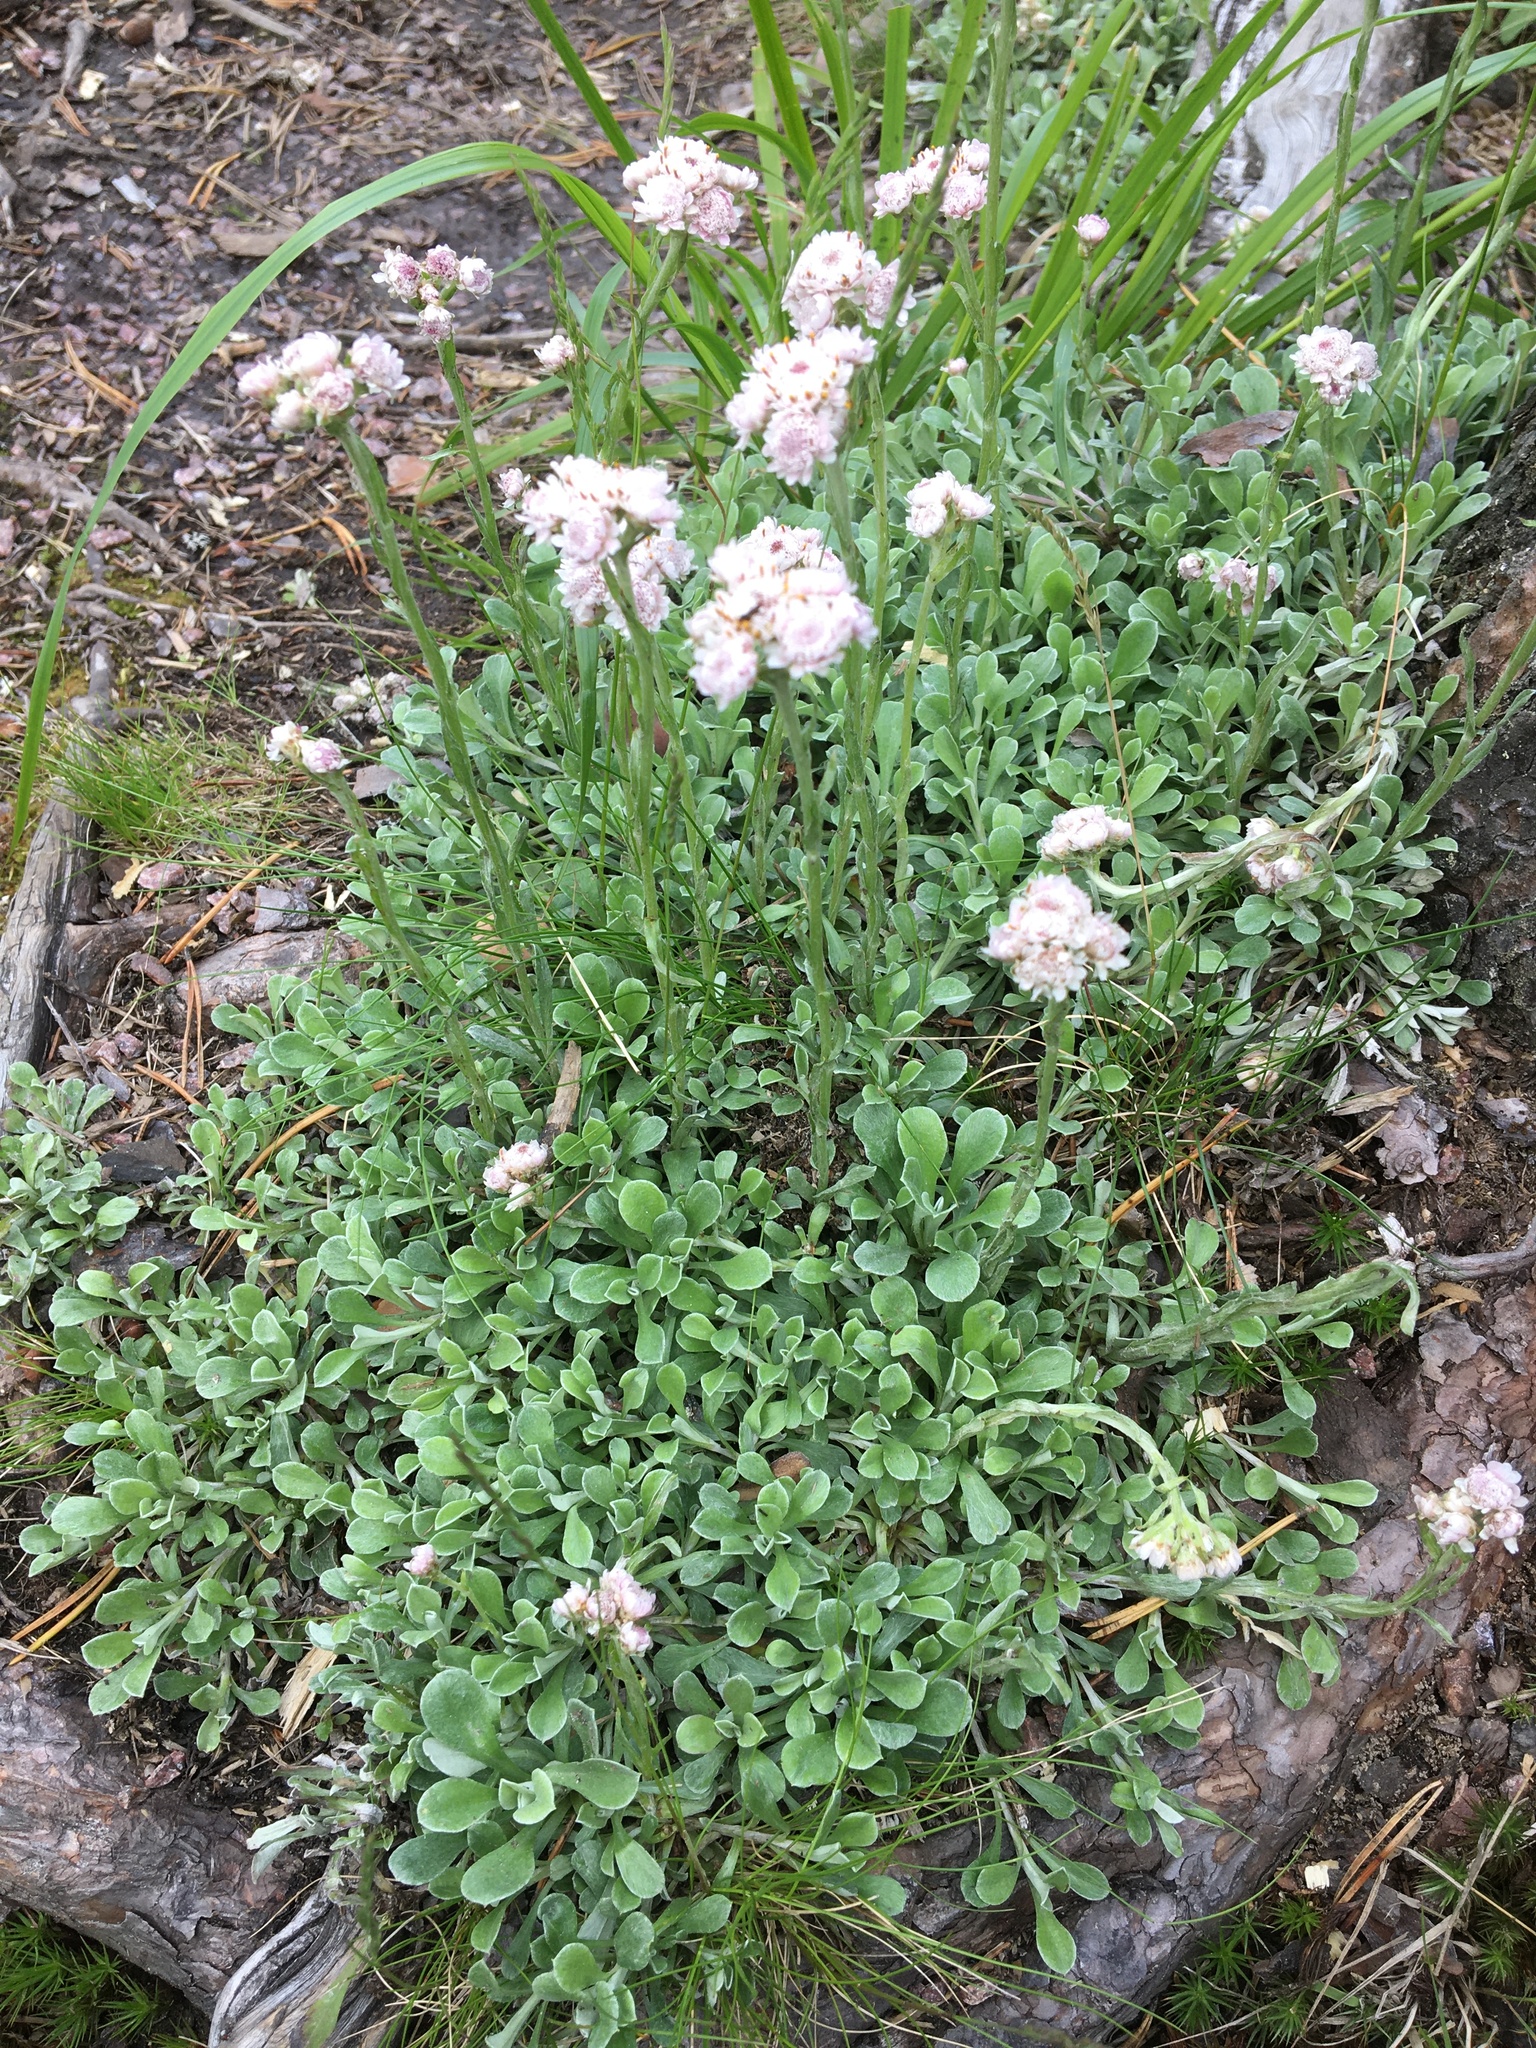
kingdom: Plantae
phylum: Tracheophyta
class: Magnoliopsida
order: Asterales
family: Asteraceae
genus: Antennaria
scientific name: Antennaria dioica
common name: Mountain everlasting
